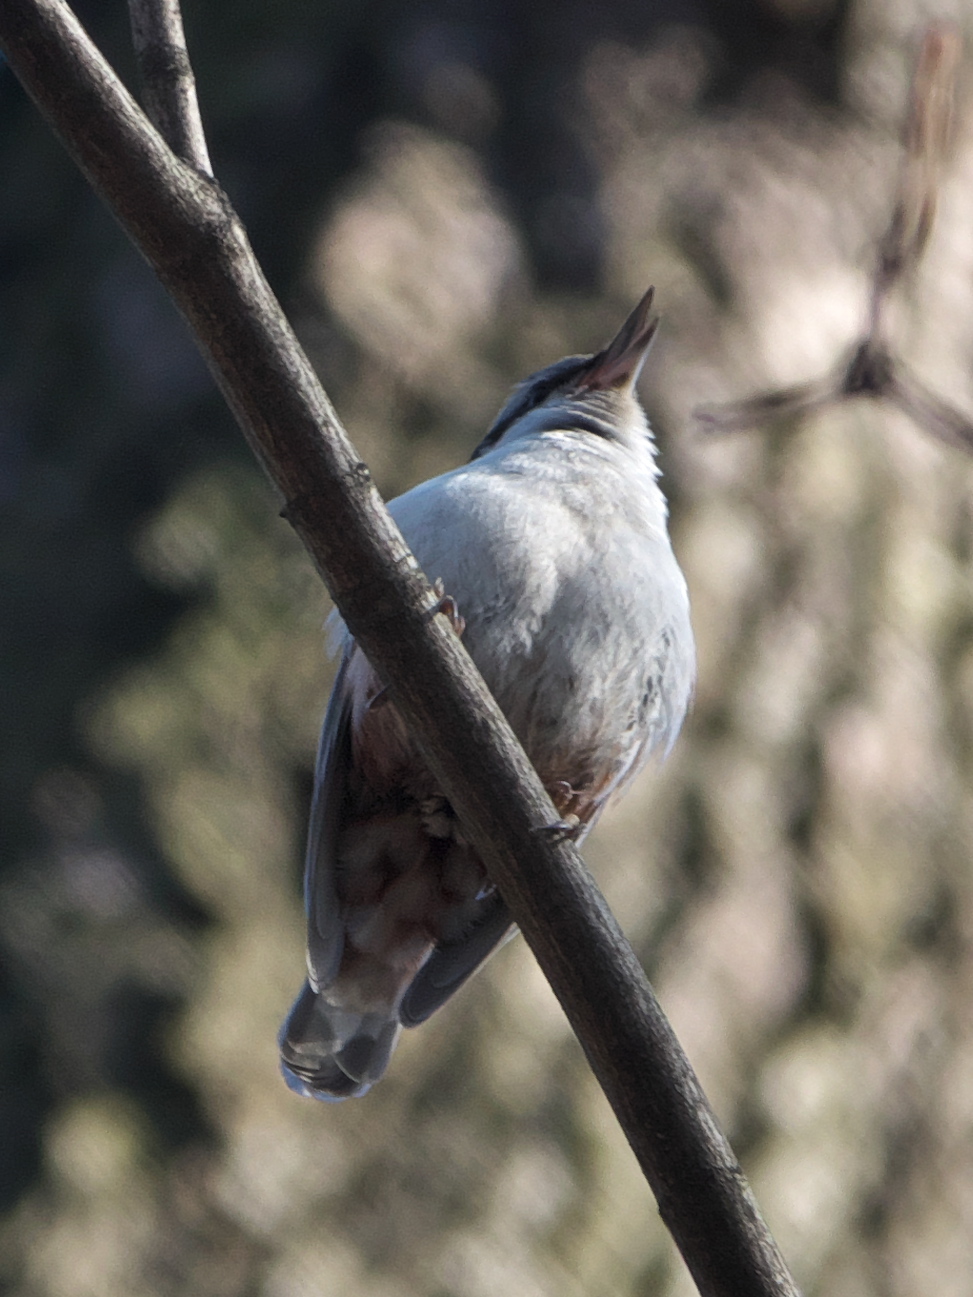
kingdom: Animalia
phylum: Chordata
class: Aves
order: Passeriformes
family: Sittidae
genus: Sitta
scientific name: Sitta europaea
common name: Eurasian nuthatch
